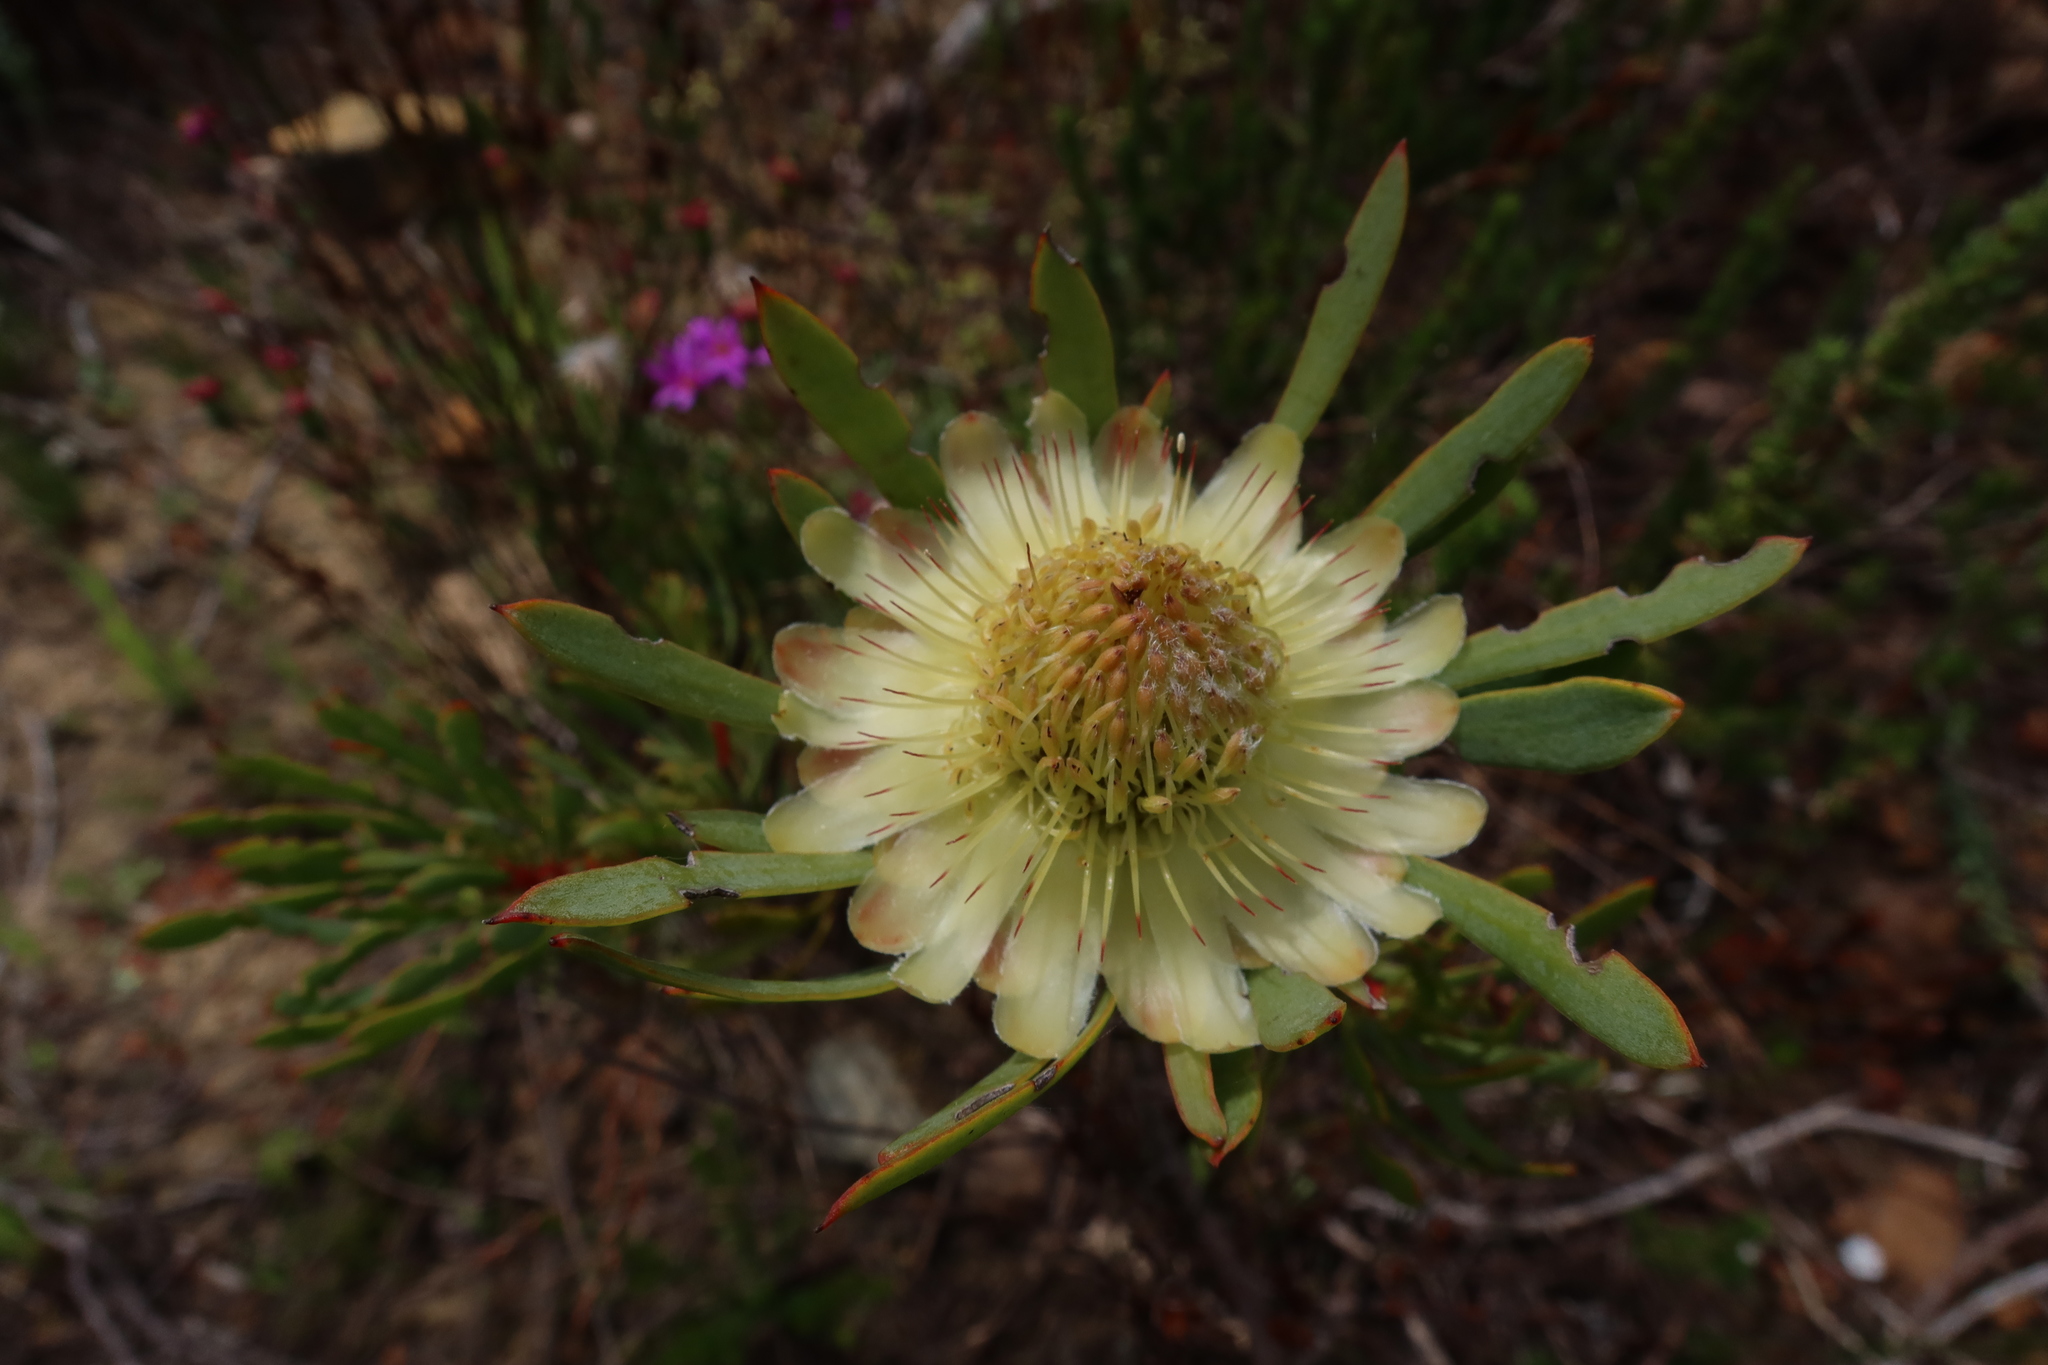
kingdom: Plantae
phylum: Tracheophyta
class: Magnoliopsida
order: Proteales
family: Proteaceae
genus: Protea
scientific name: Protea scolymocephala
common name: Thistle sugarbush
